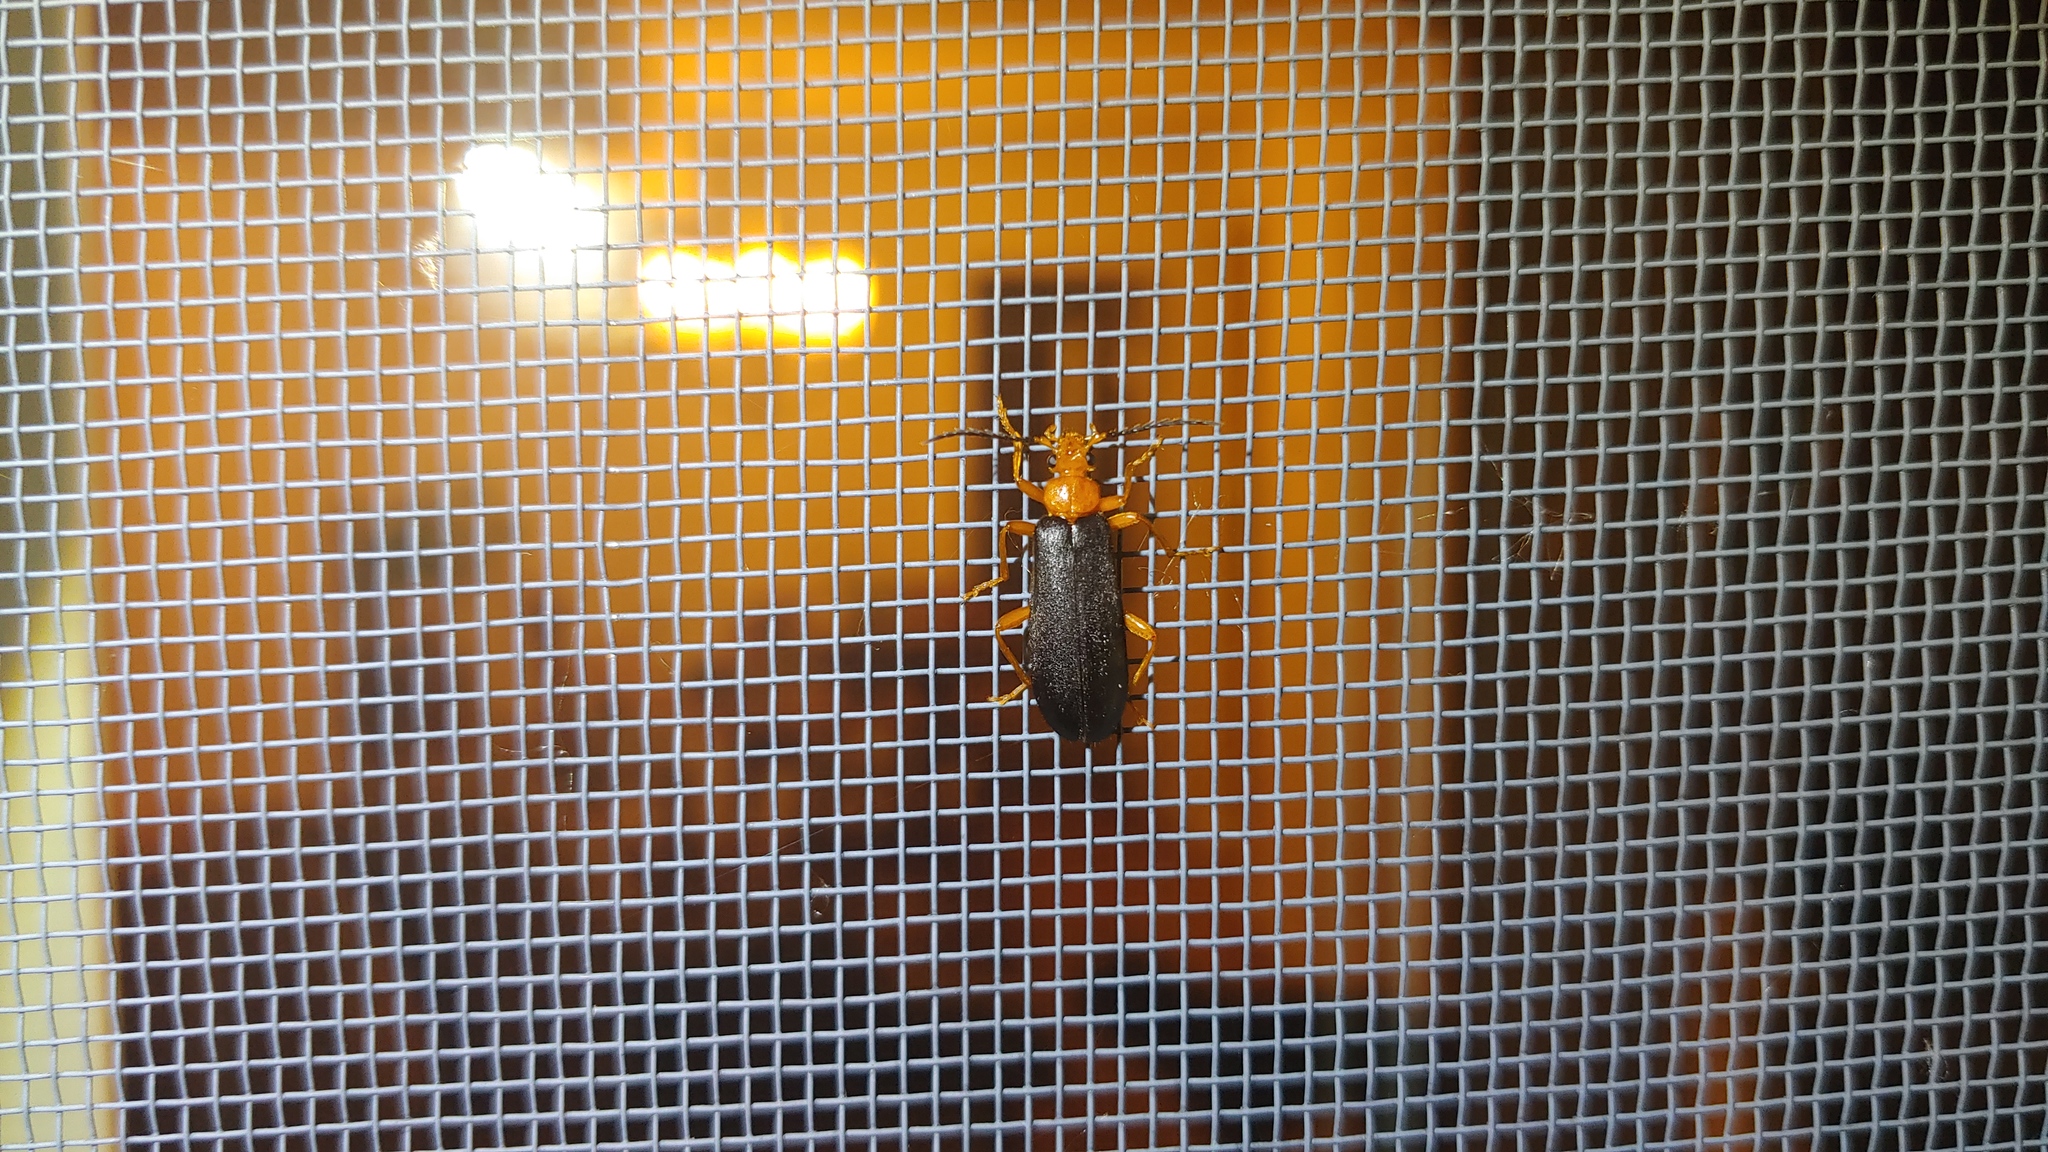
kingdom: Animalia
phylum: Arthropoda
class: Insecta
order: Coleoptera
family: Pyrochroidae
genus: Neopyrochroa
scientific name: Neopyrochroa flabellata
